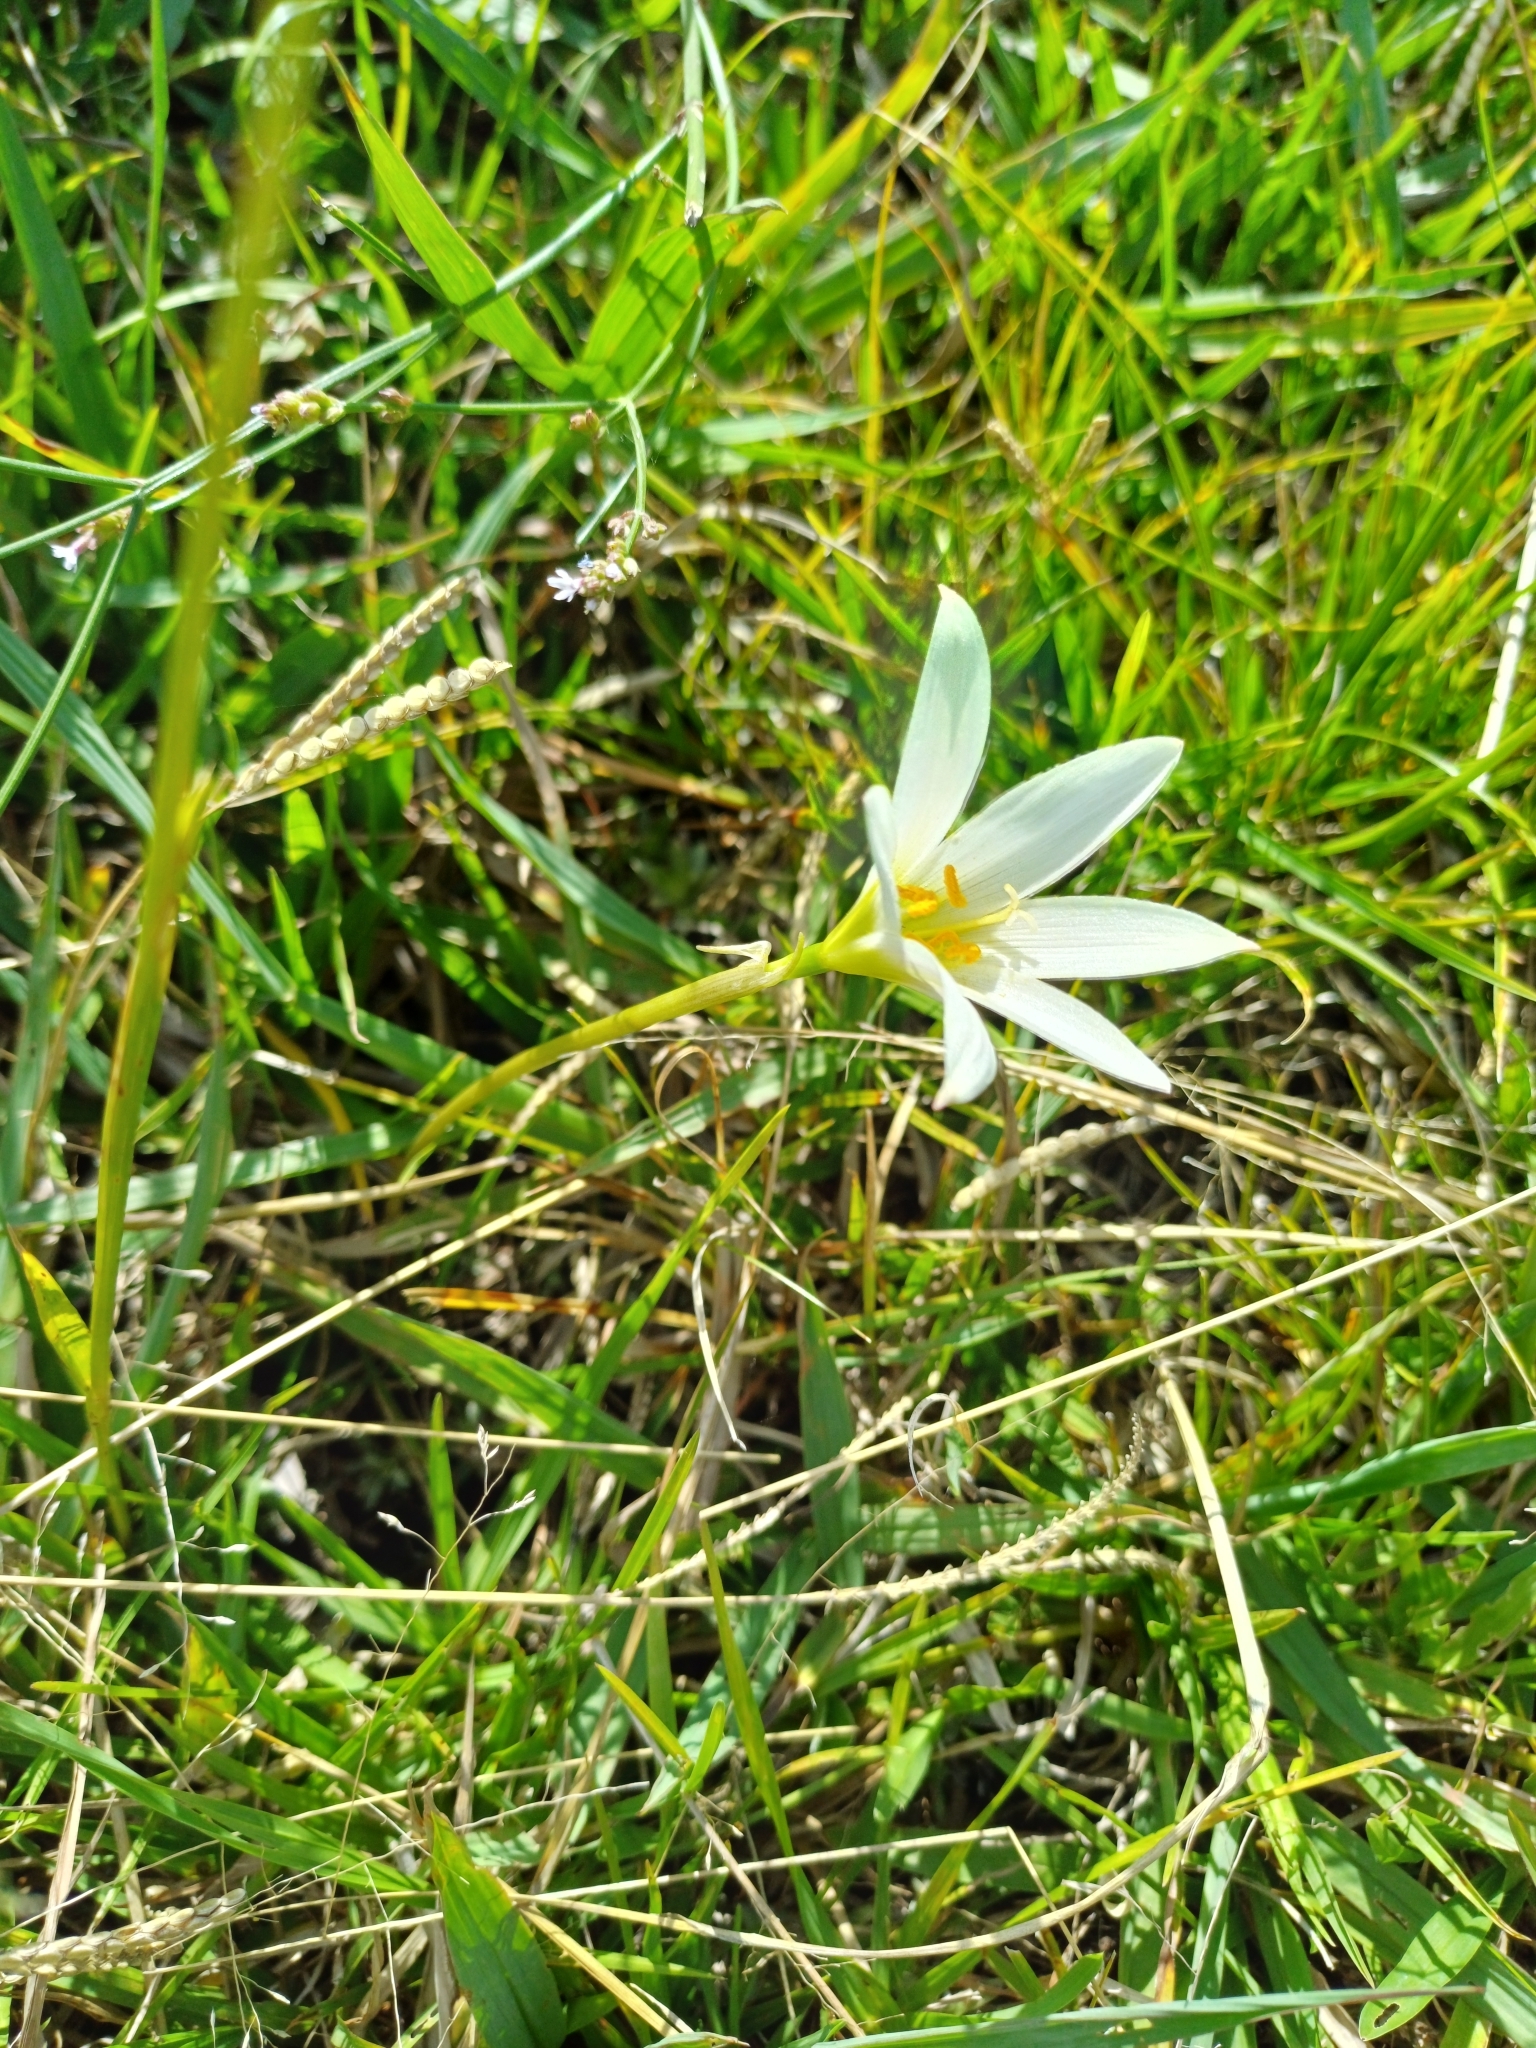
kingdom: Plantae
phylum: Tracheophyta
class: Liliopsida
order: Asparagales
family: Amaryllidaceae
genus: Zephyranthes
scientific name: Zephyranthes mesochloa
